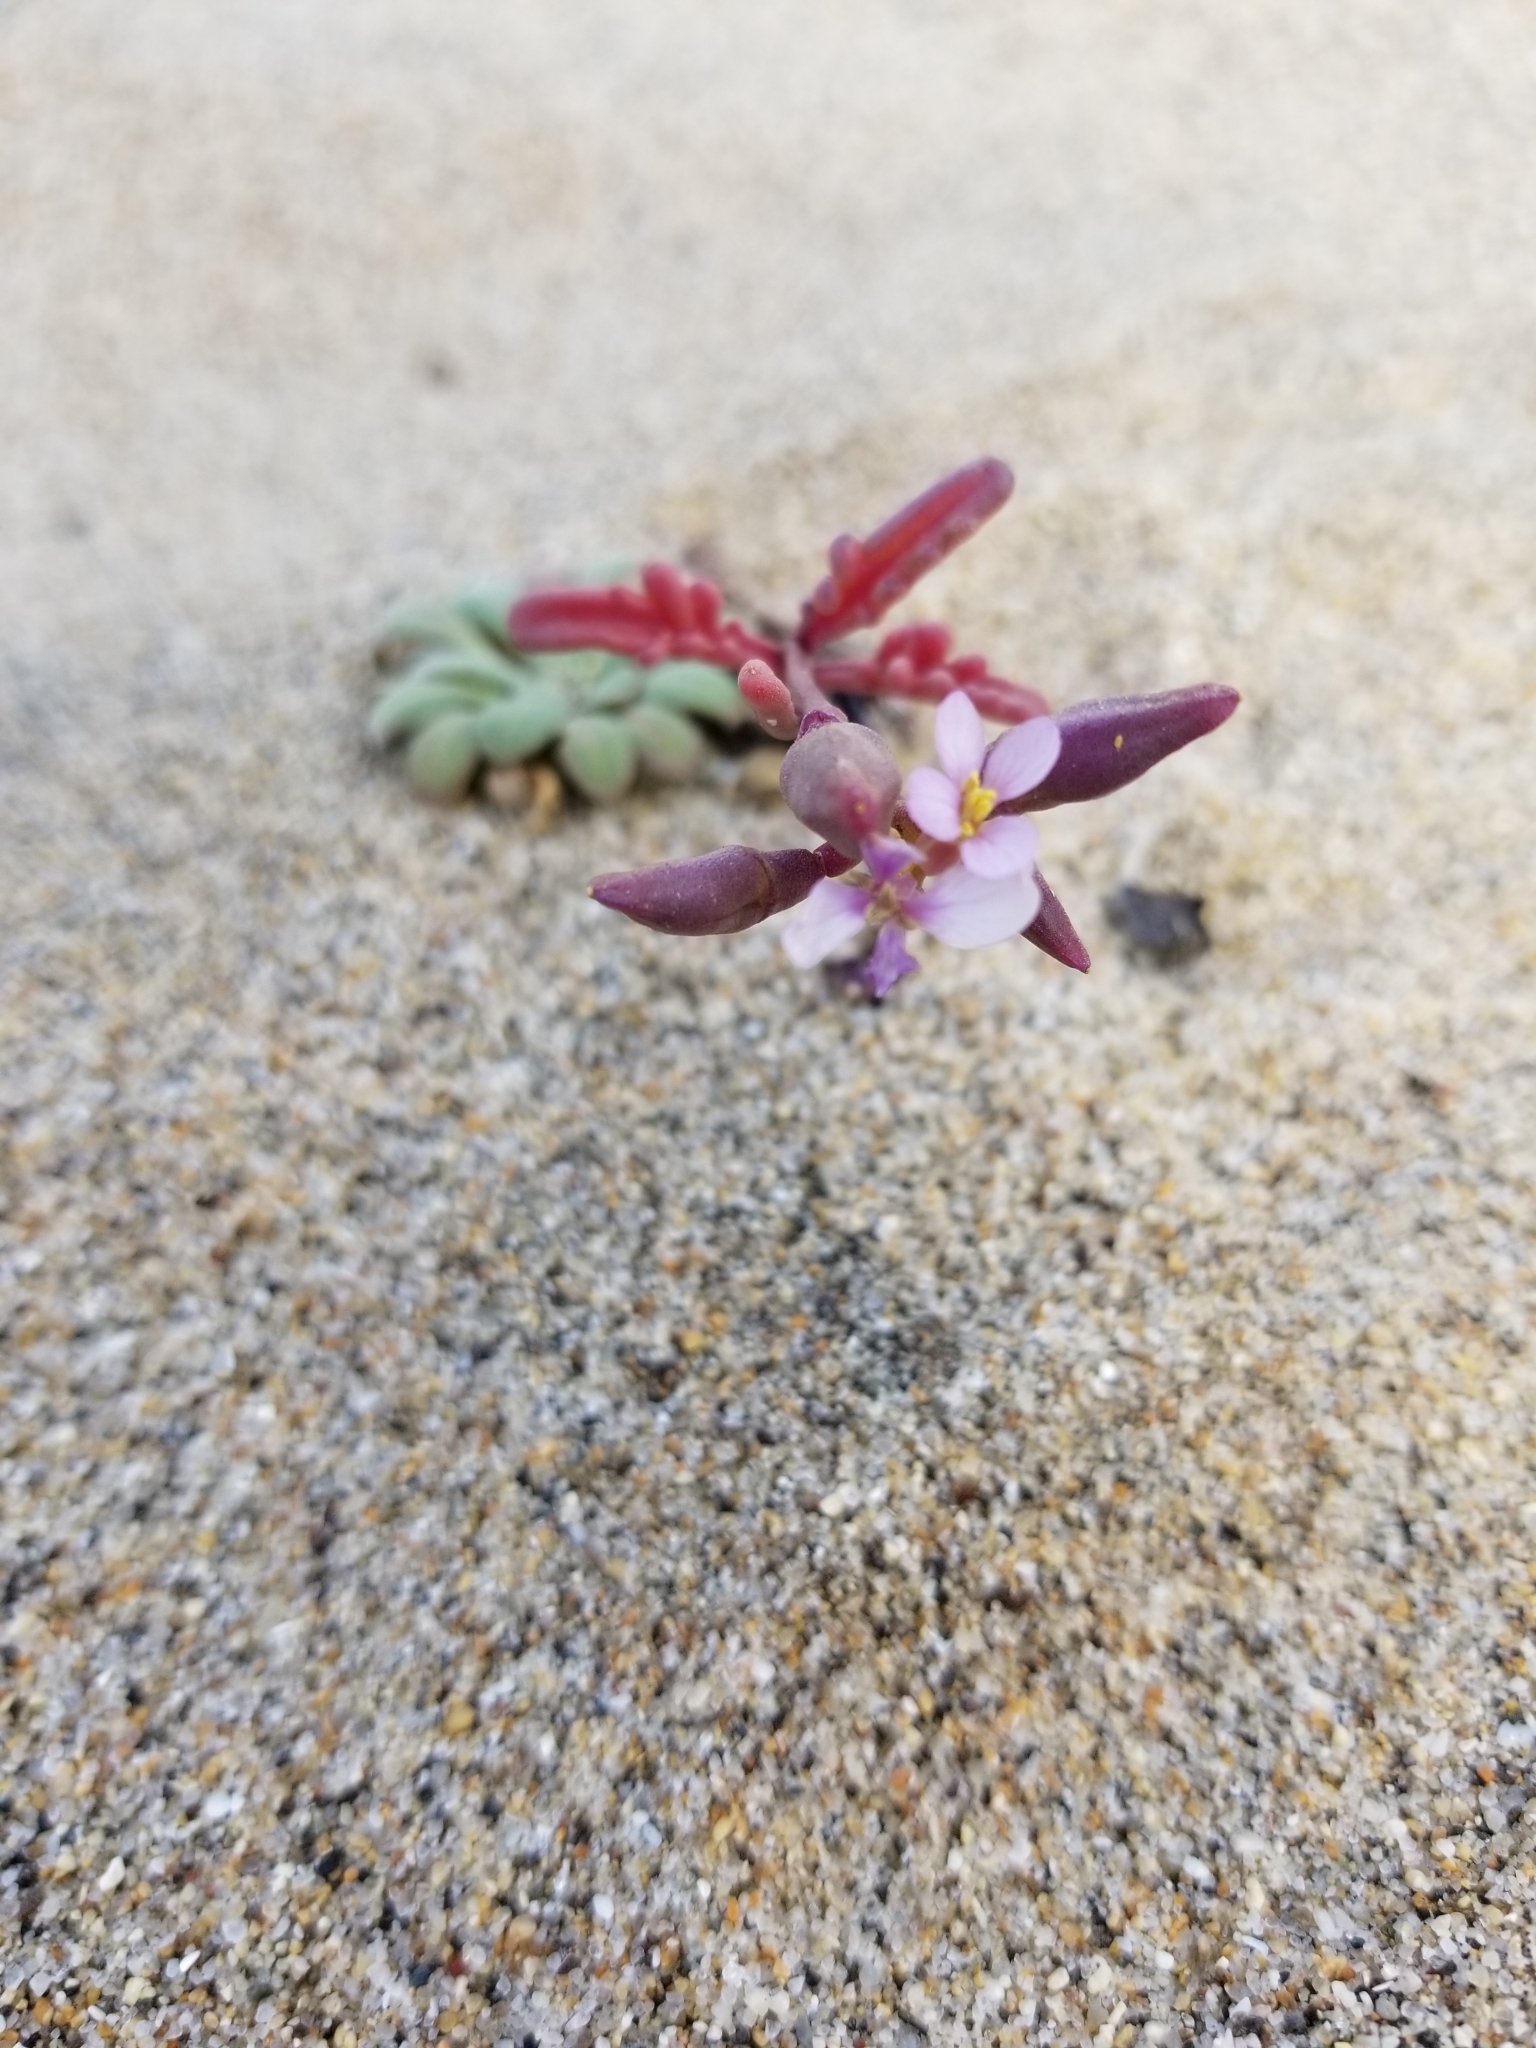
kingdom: Plantae
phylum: Tracheophyta
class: Magnoliopsida
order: Brassicales
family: Brassicaceae
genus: Cakile
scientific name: Cakile maritima
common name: Sea rocket
